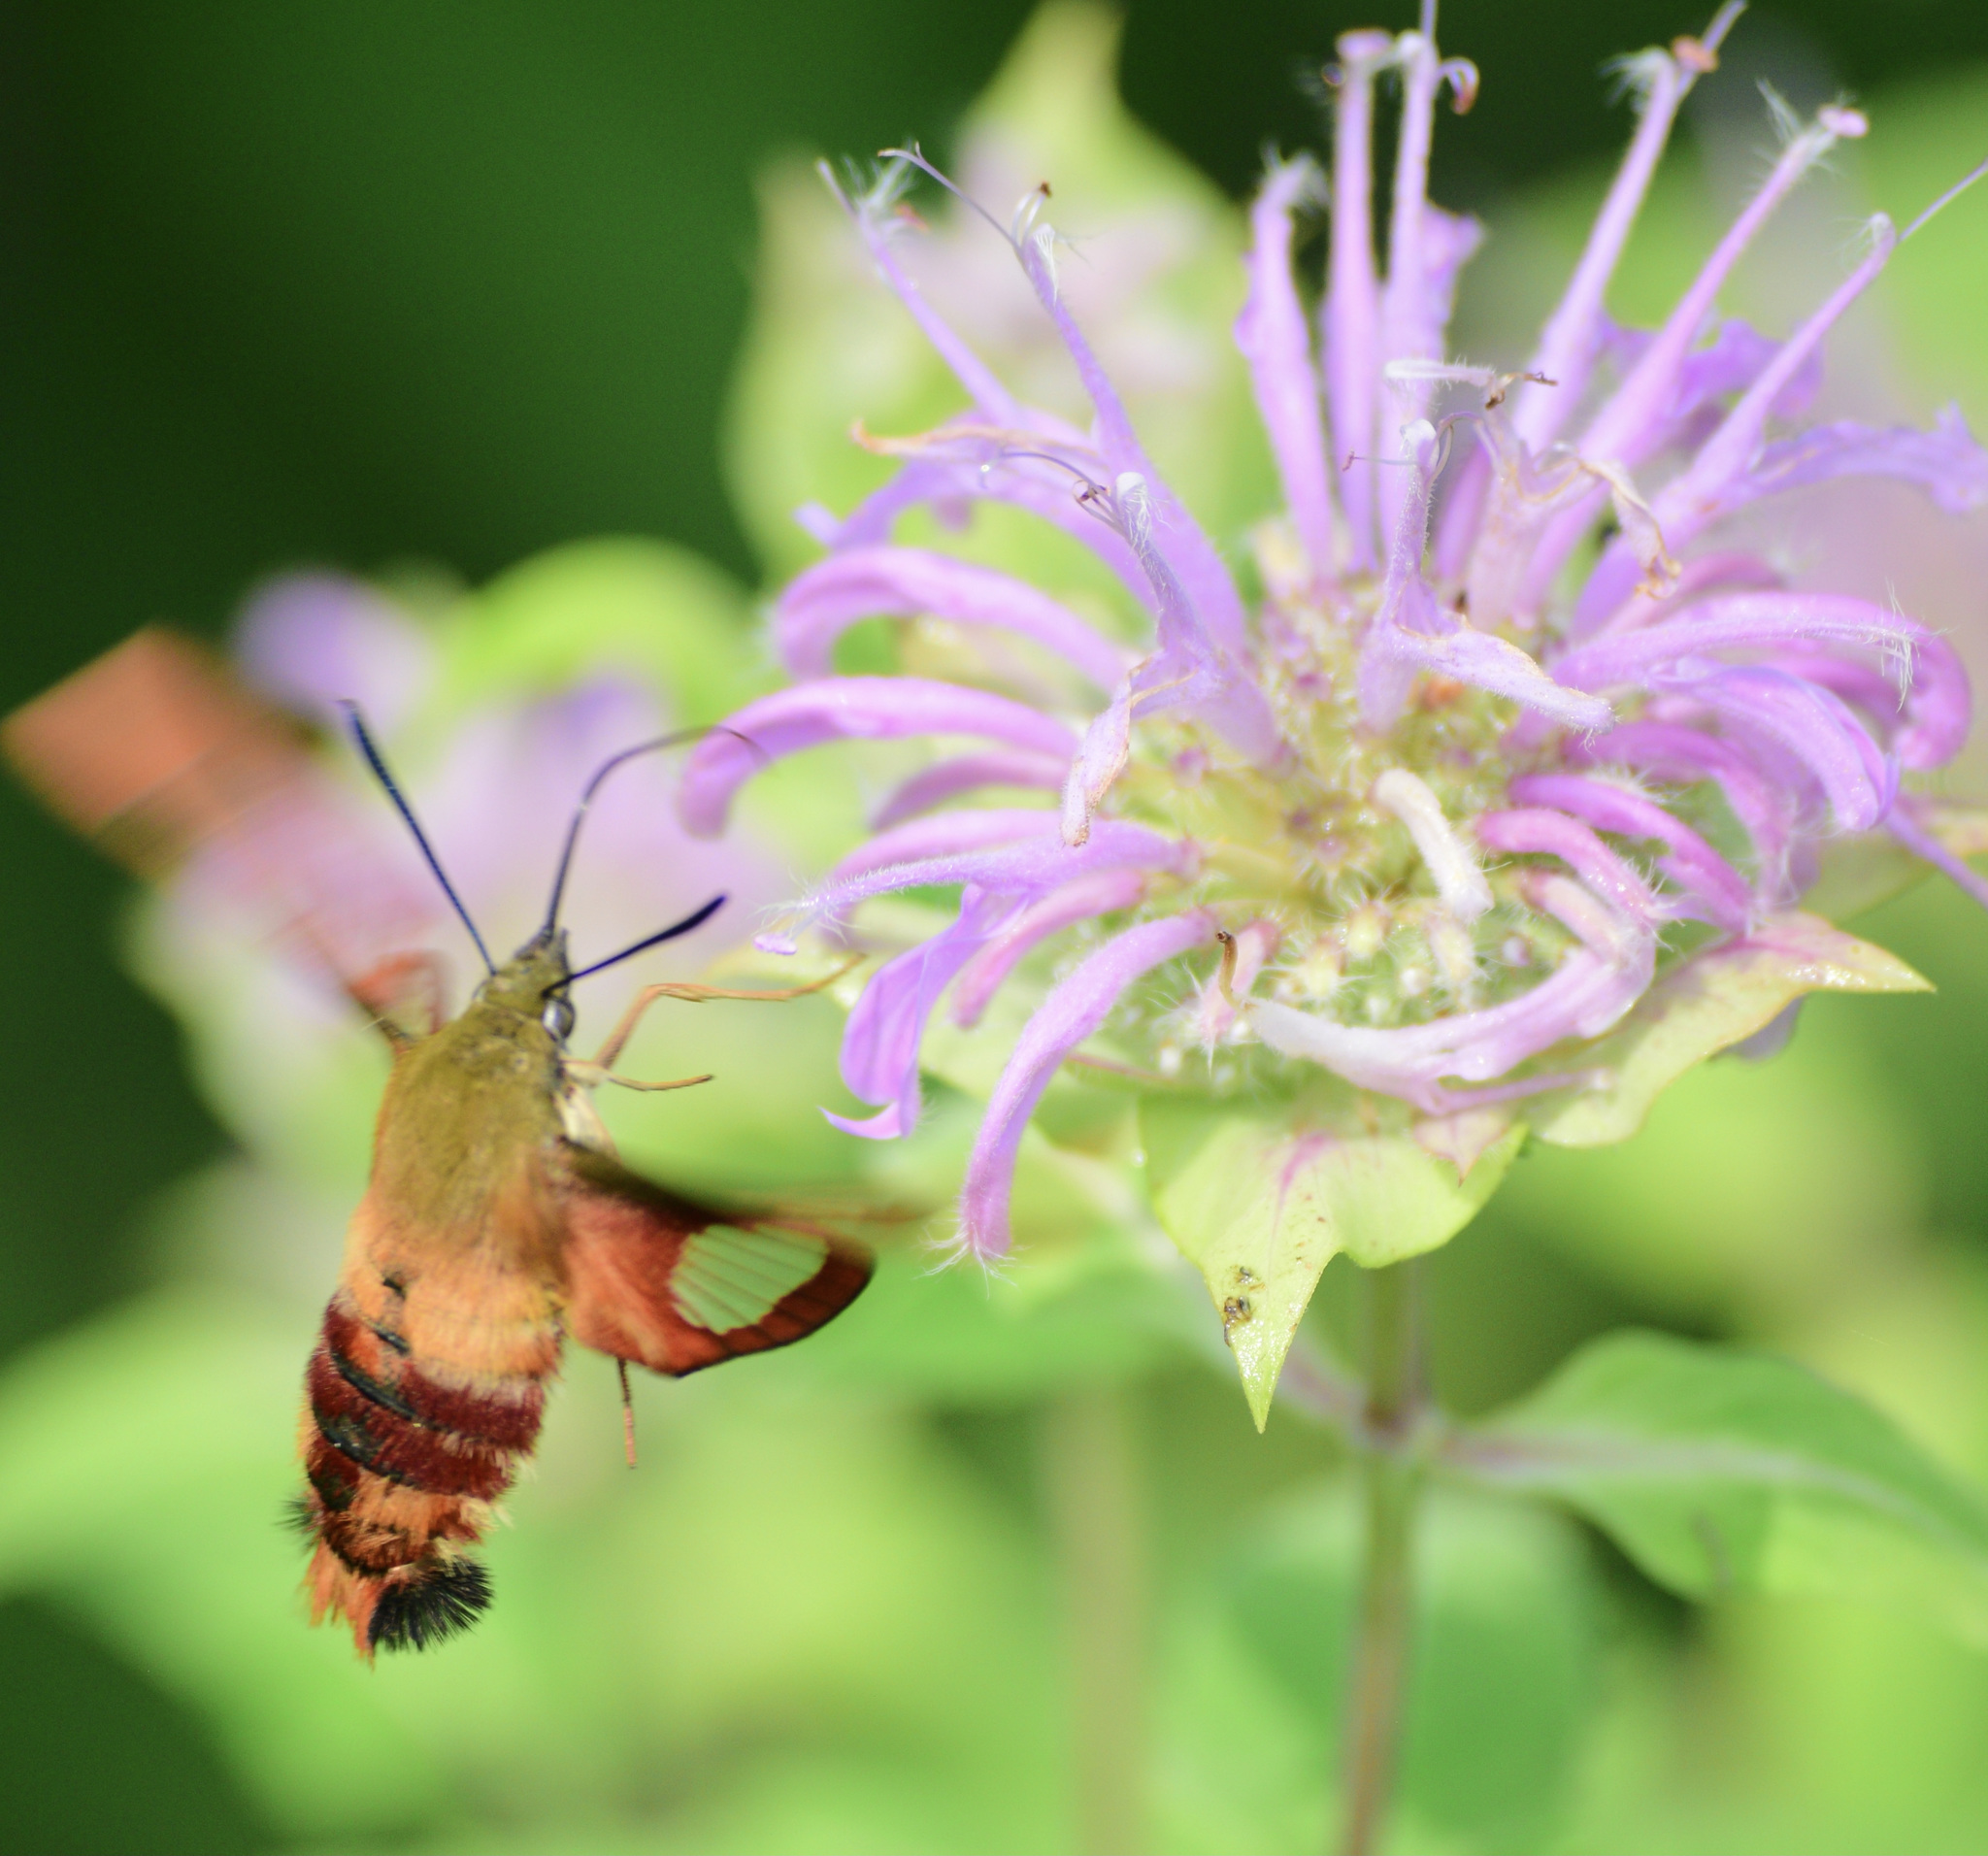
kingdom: Animalia
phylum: Arthropoda
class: Insecta
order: Lepidoptera
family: Sphingidae
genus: Hemaris
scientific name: Hemaris thysbe
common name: Common clear-wing
